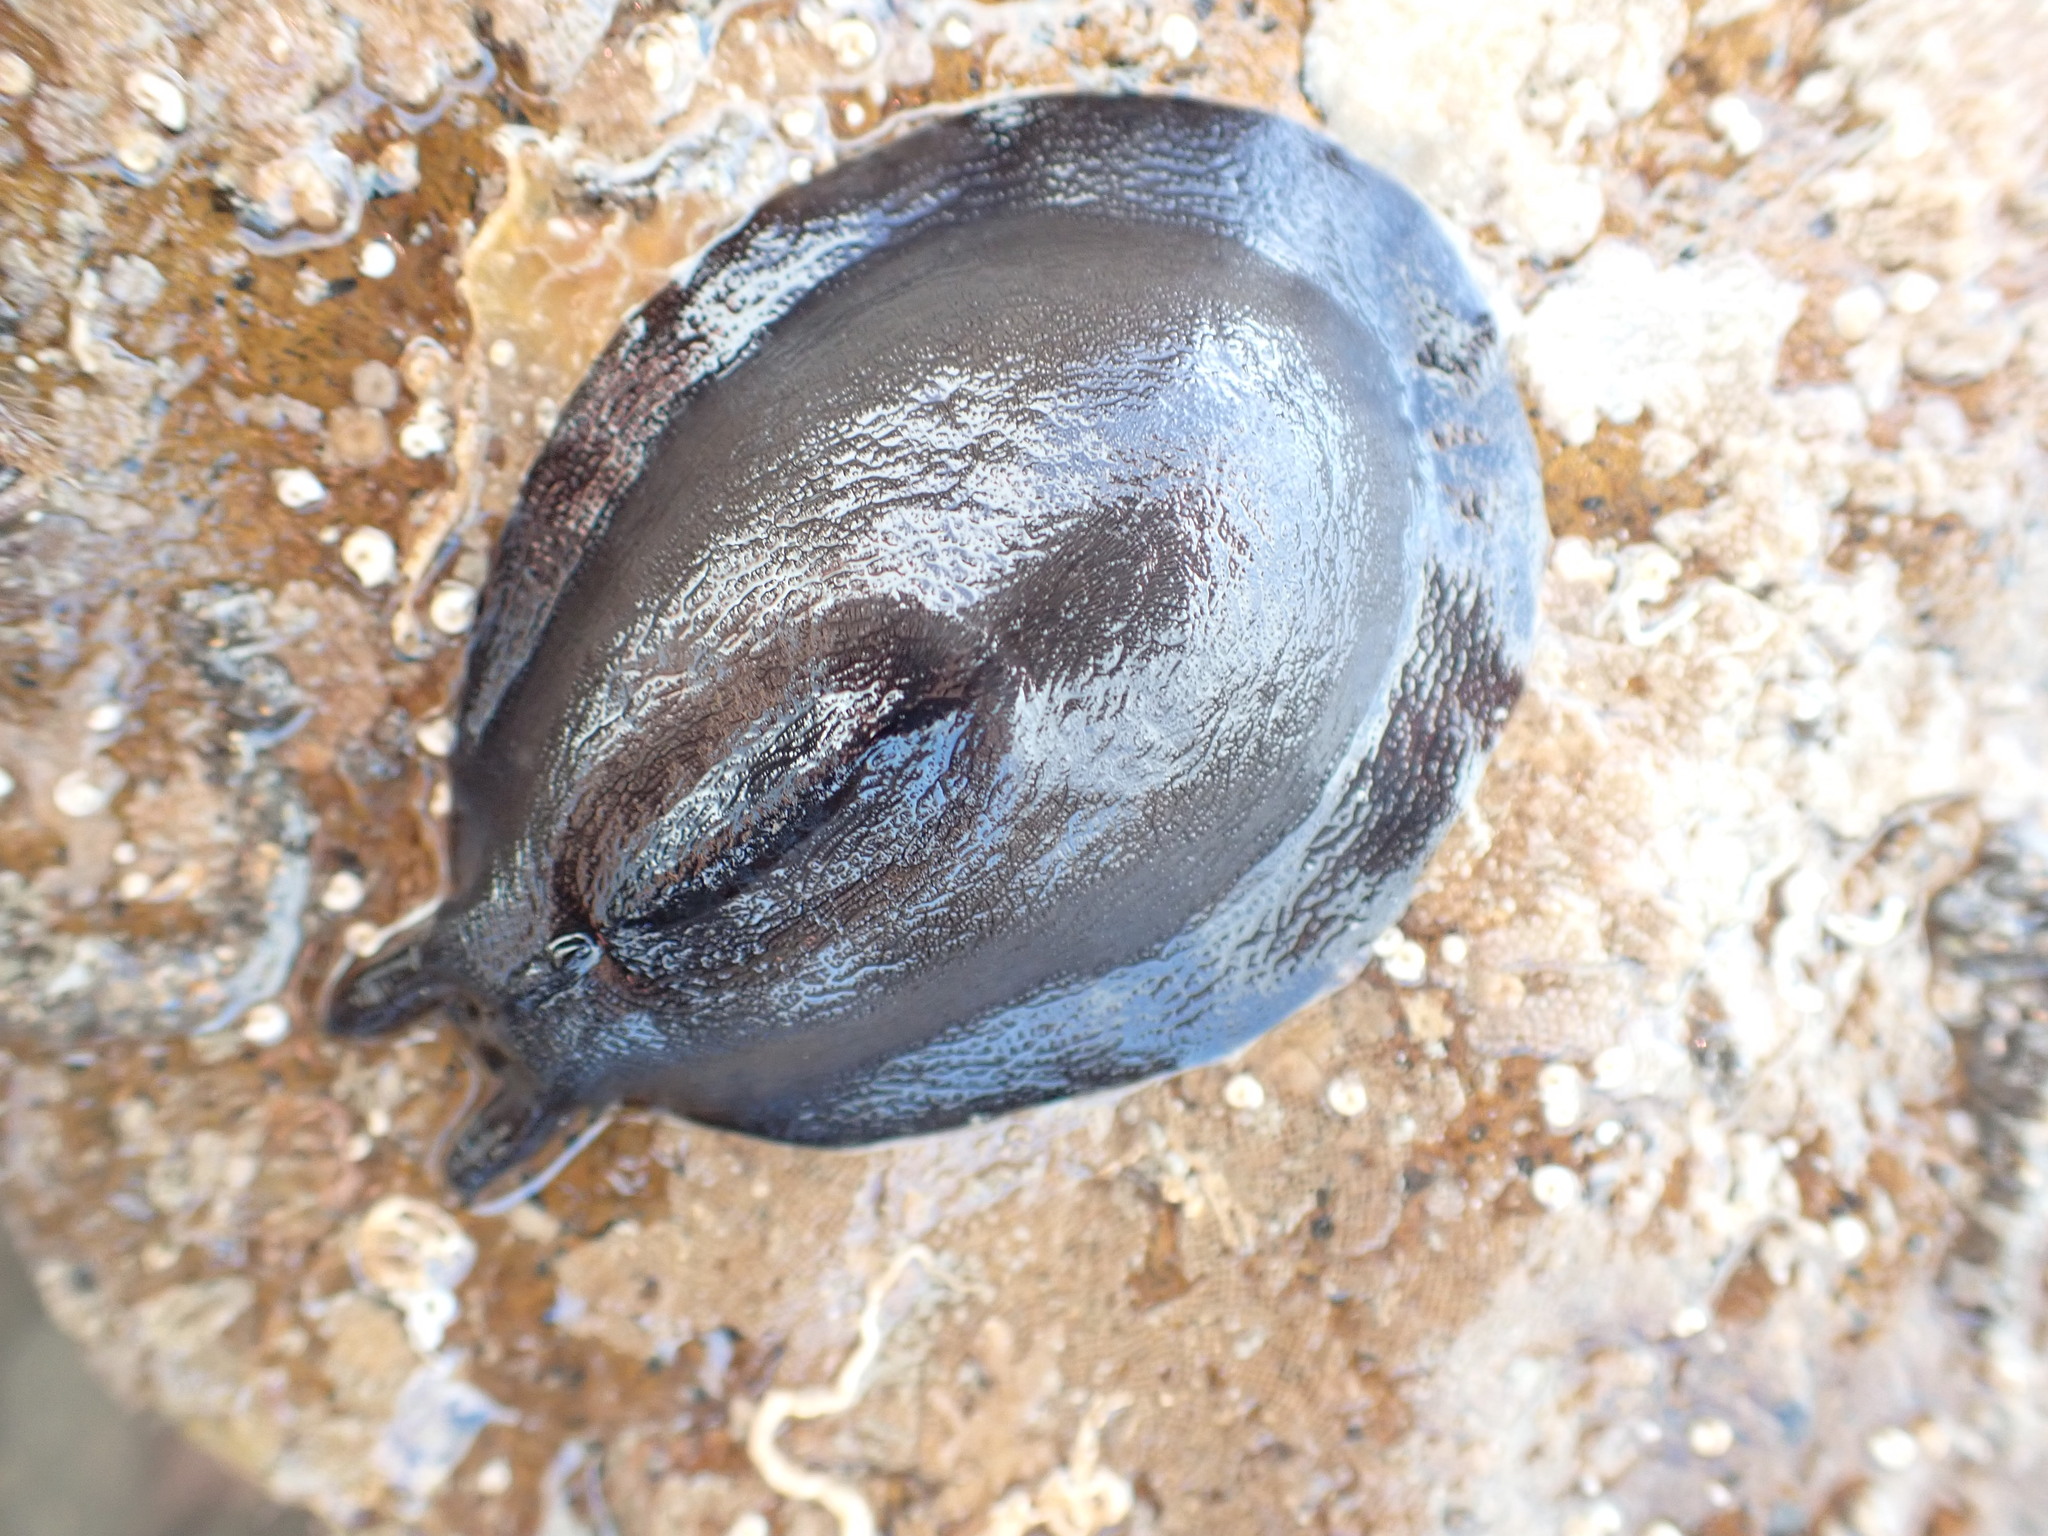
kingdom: Animalia
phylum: Mollusca
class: Gastropoda
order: Lepetellida
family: Fissurellidae
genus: Scutus
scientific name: Scutus breviculus
